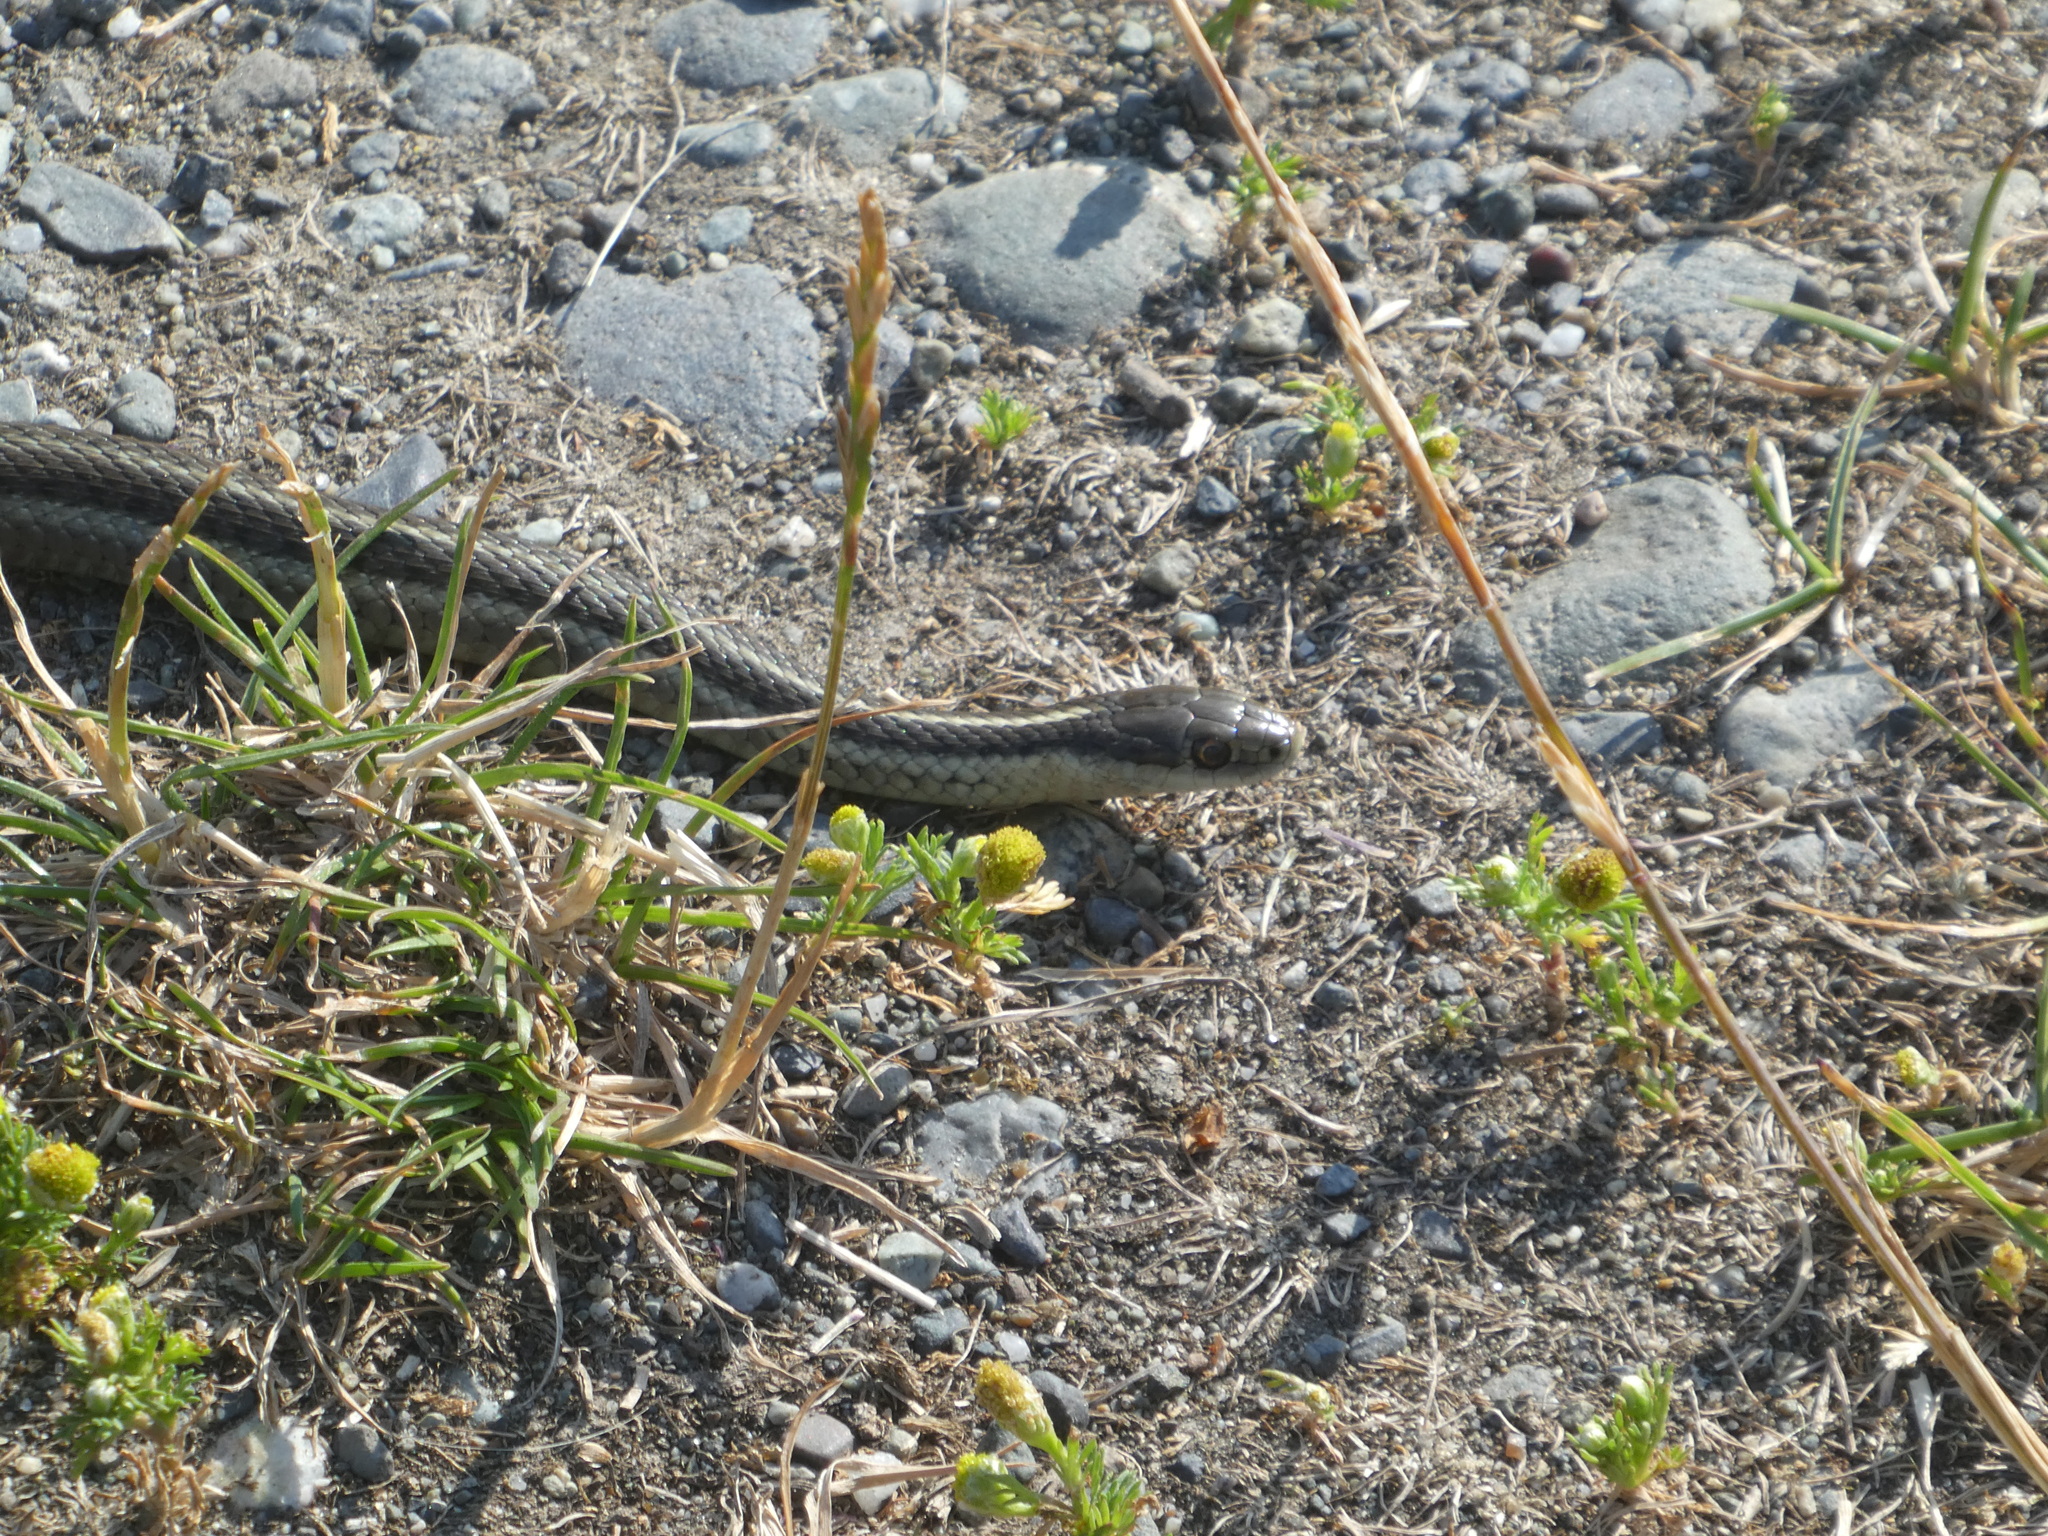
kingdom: Animalia
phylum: Chordata
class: Squamata
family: Colubridae
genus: Thamnophis
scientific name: Thamnophis ordinoides
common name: Northwestern garter snake
